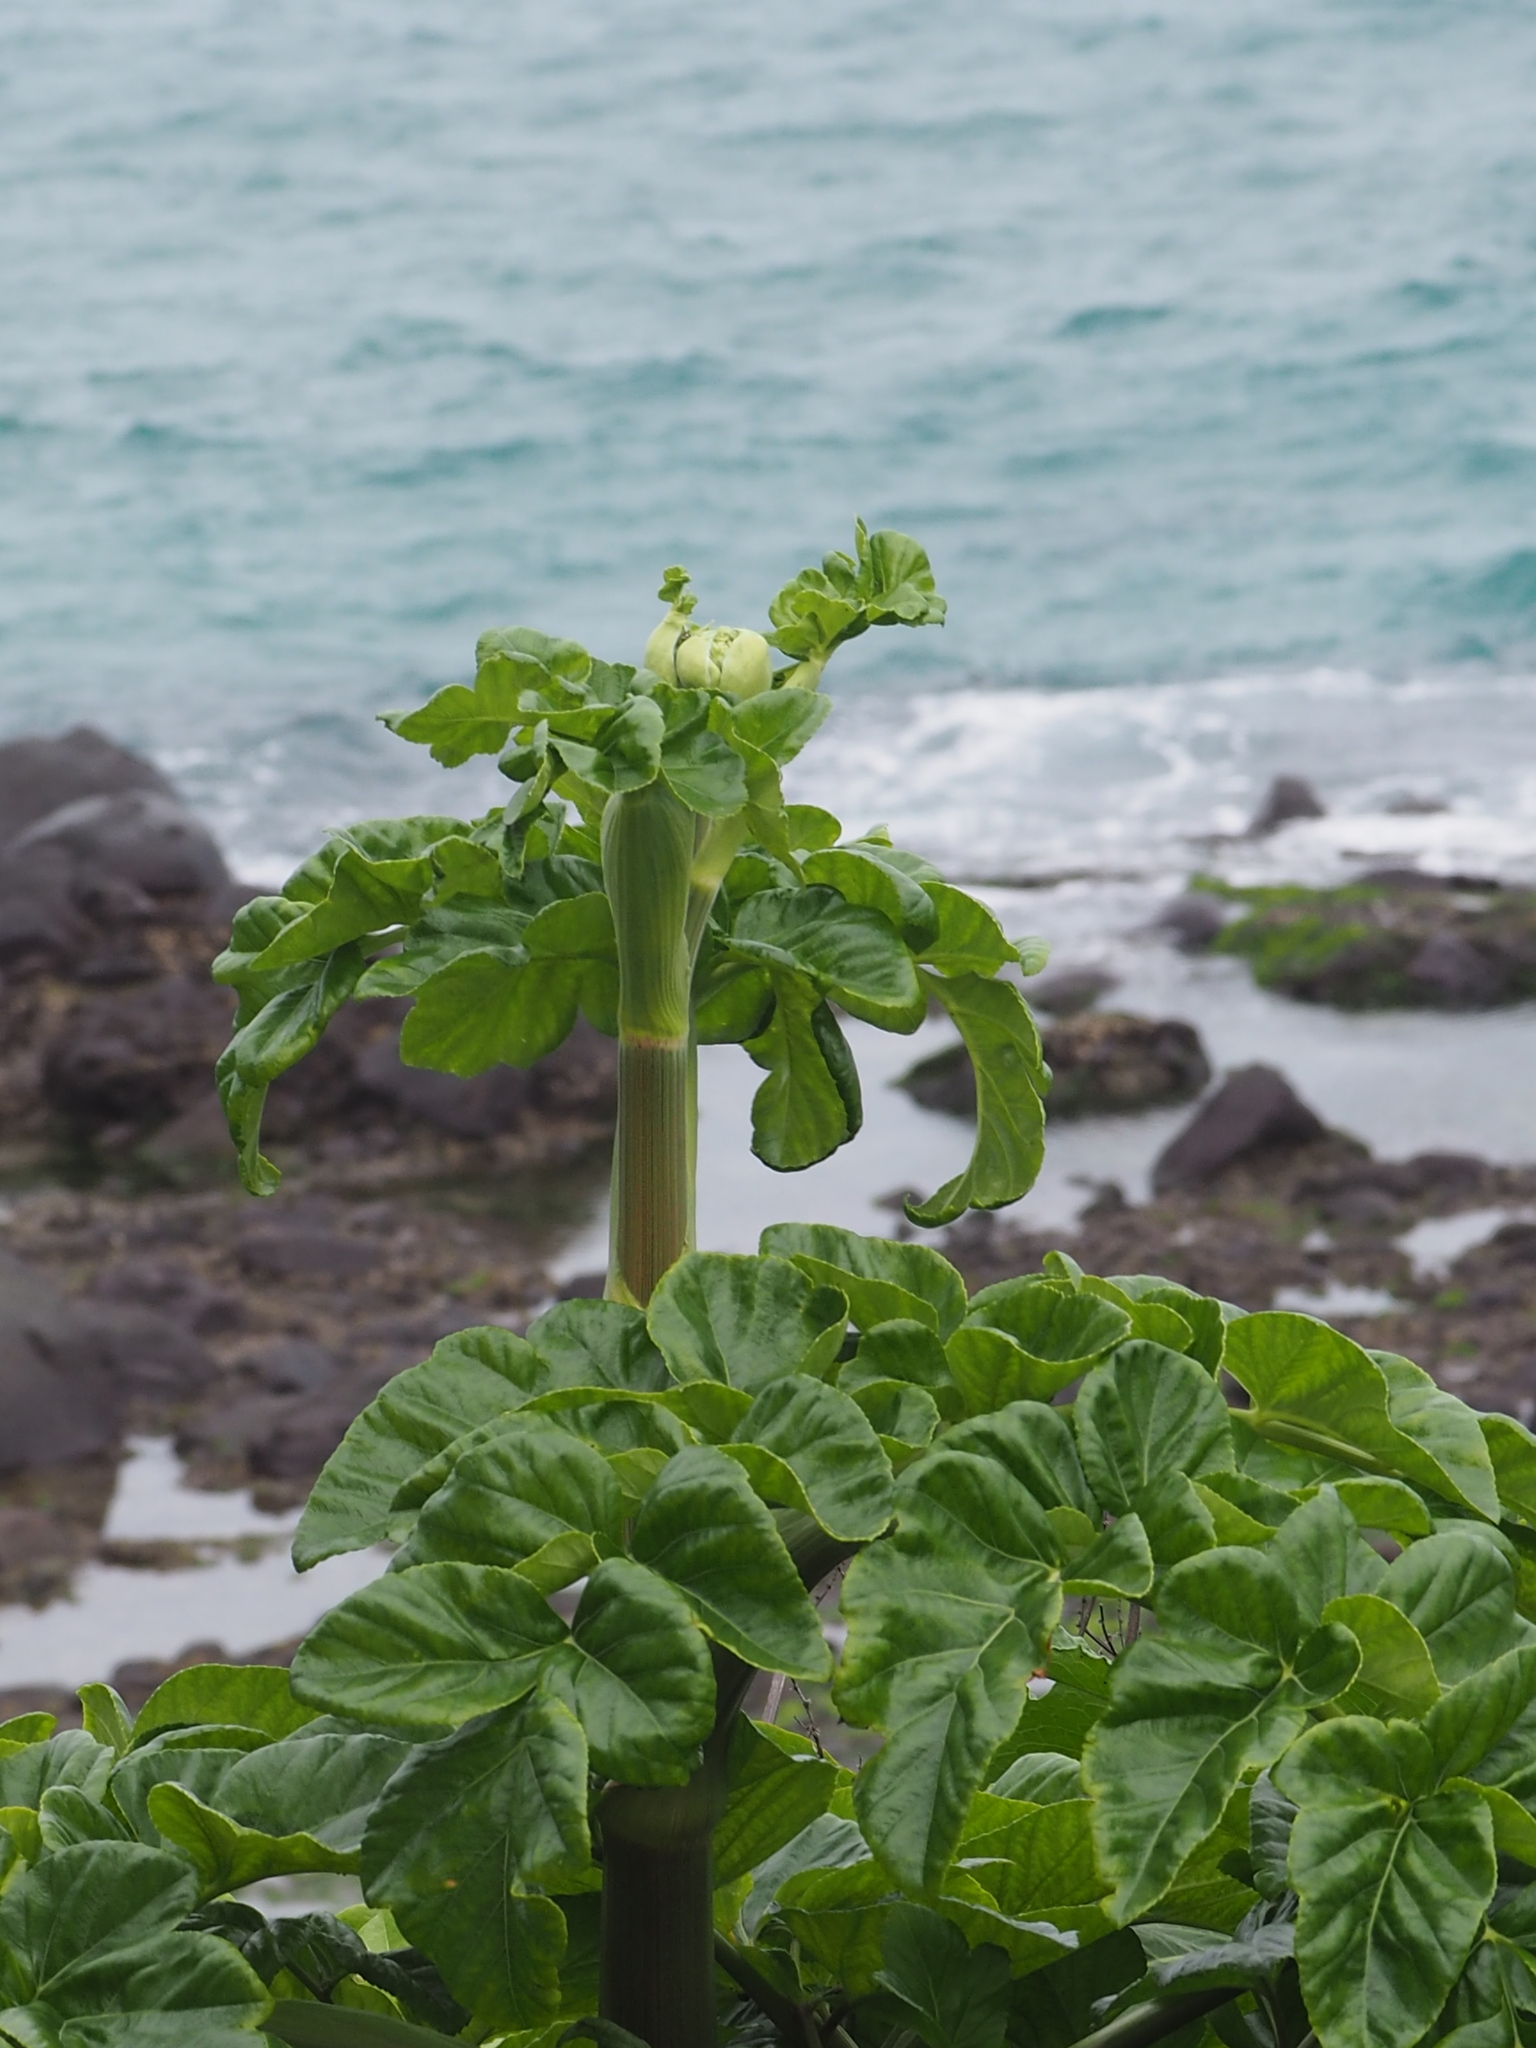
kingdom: Plantae
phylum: Tracheophyta
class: Magnoliopsida
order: Apiales
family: Apiaceae
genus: Angelica
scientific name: Angelica hirsutiflora
